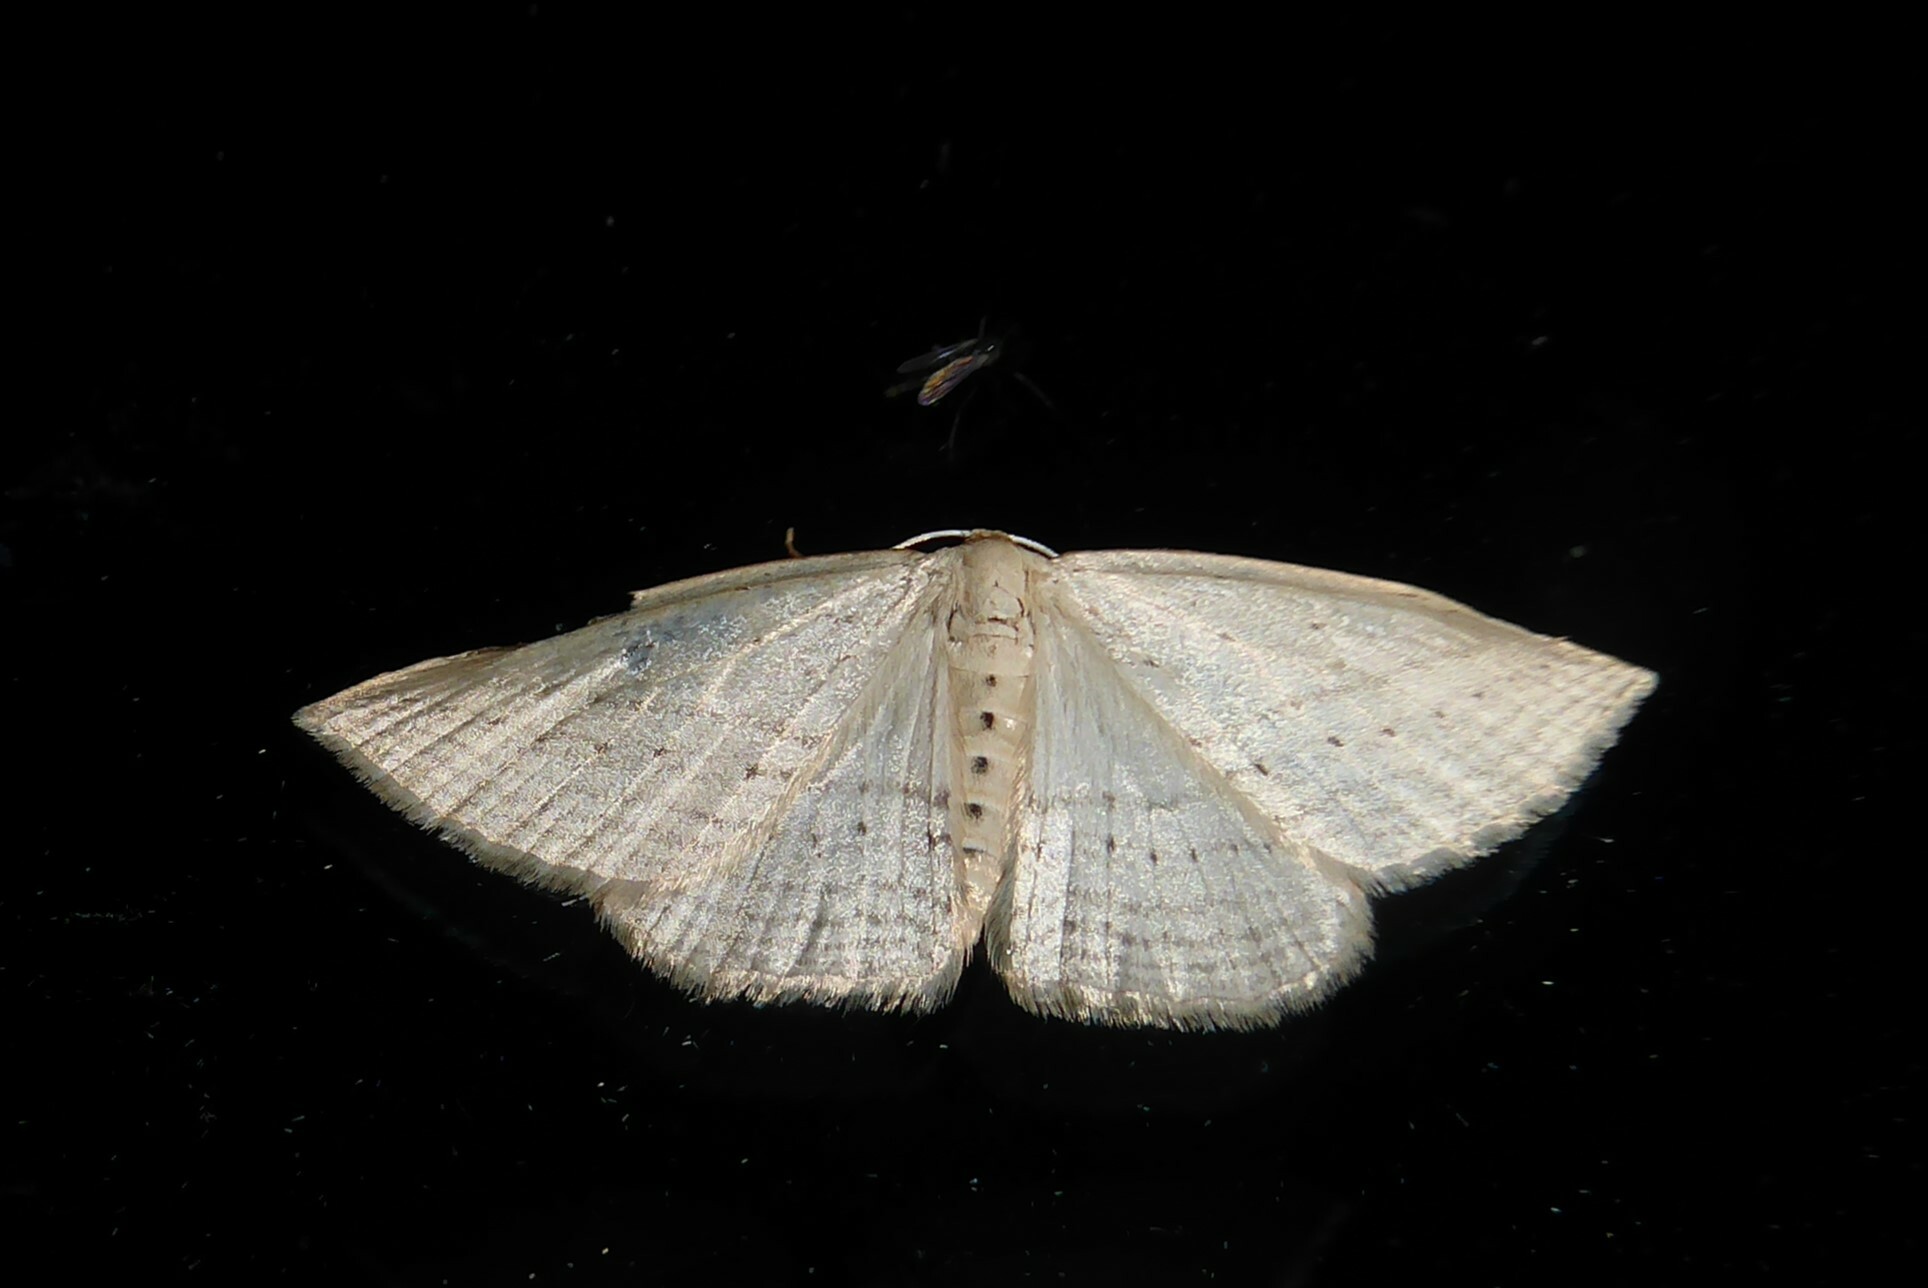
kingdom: Animalia
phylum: Arthropoda
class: Insecta
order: Lepidoptera
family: Geometridae
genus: Orthoclydon
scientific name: Orthoclydon praefectata
